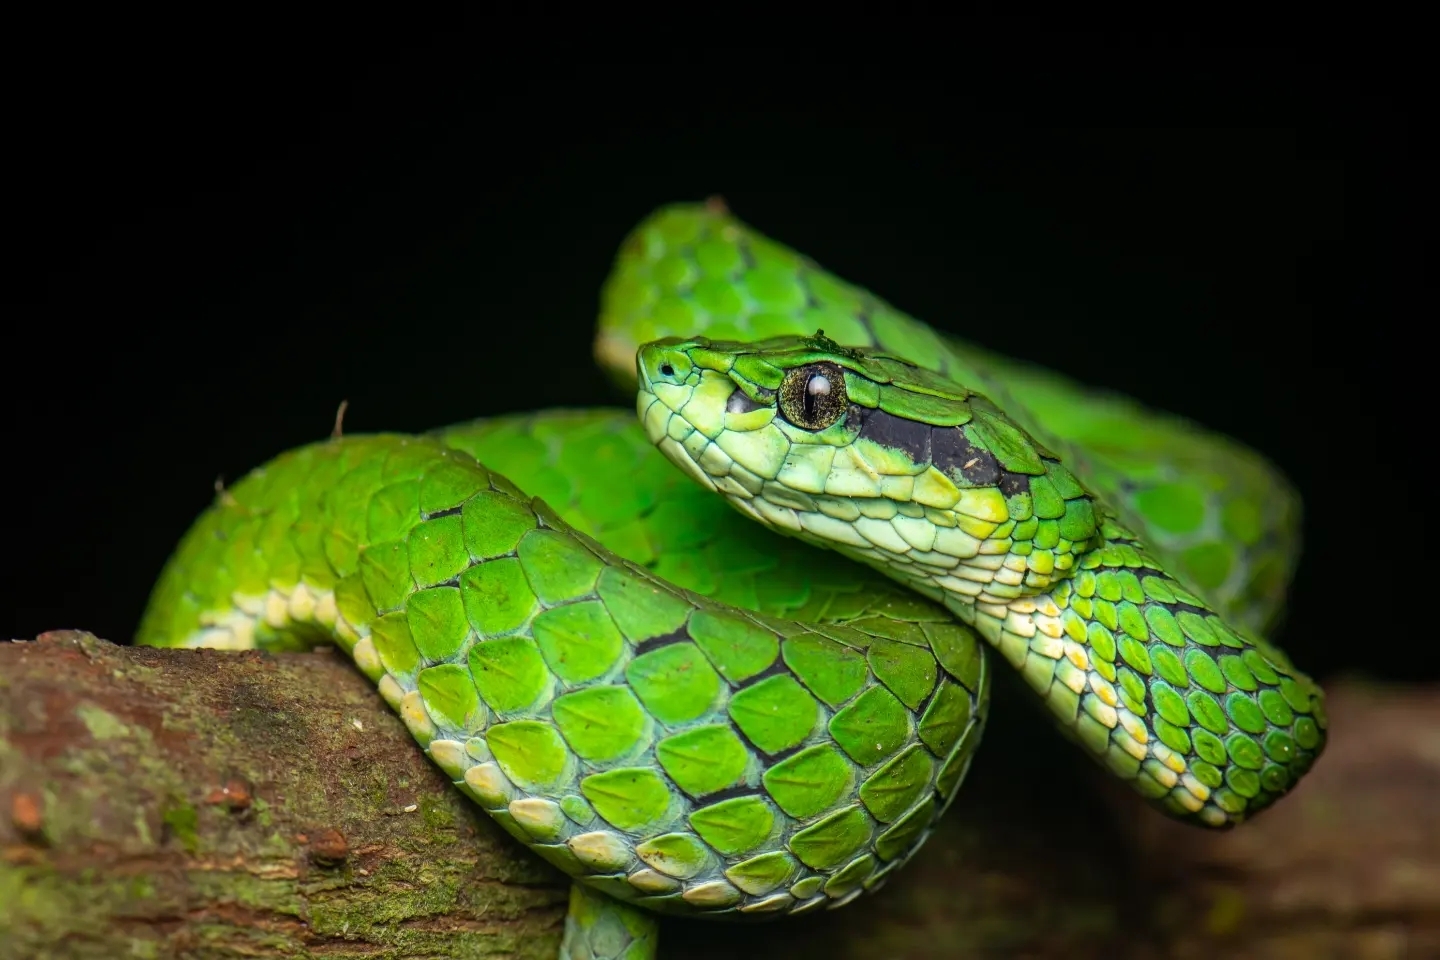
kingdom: Animalia
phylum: Chordata
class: Squamata
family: Viperidae
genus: Craspedocephalus
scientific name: Craspedocephalus macrolepis
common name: Large-scaled pit viper
